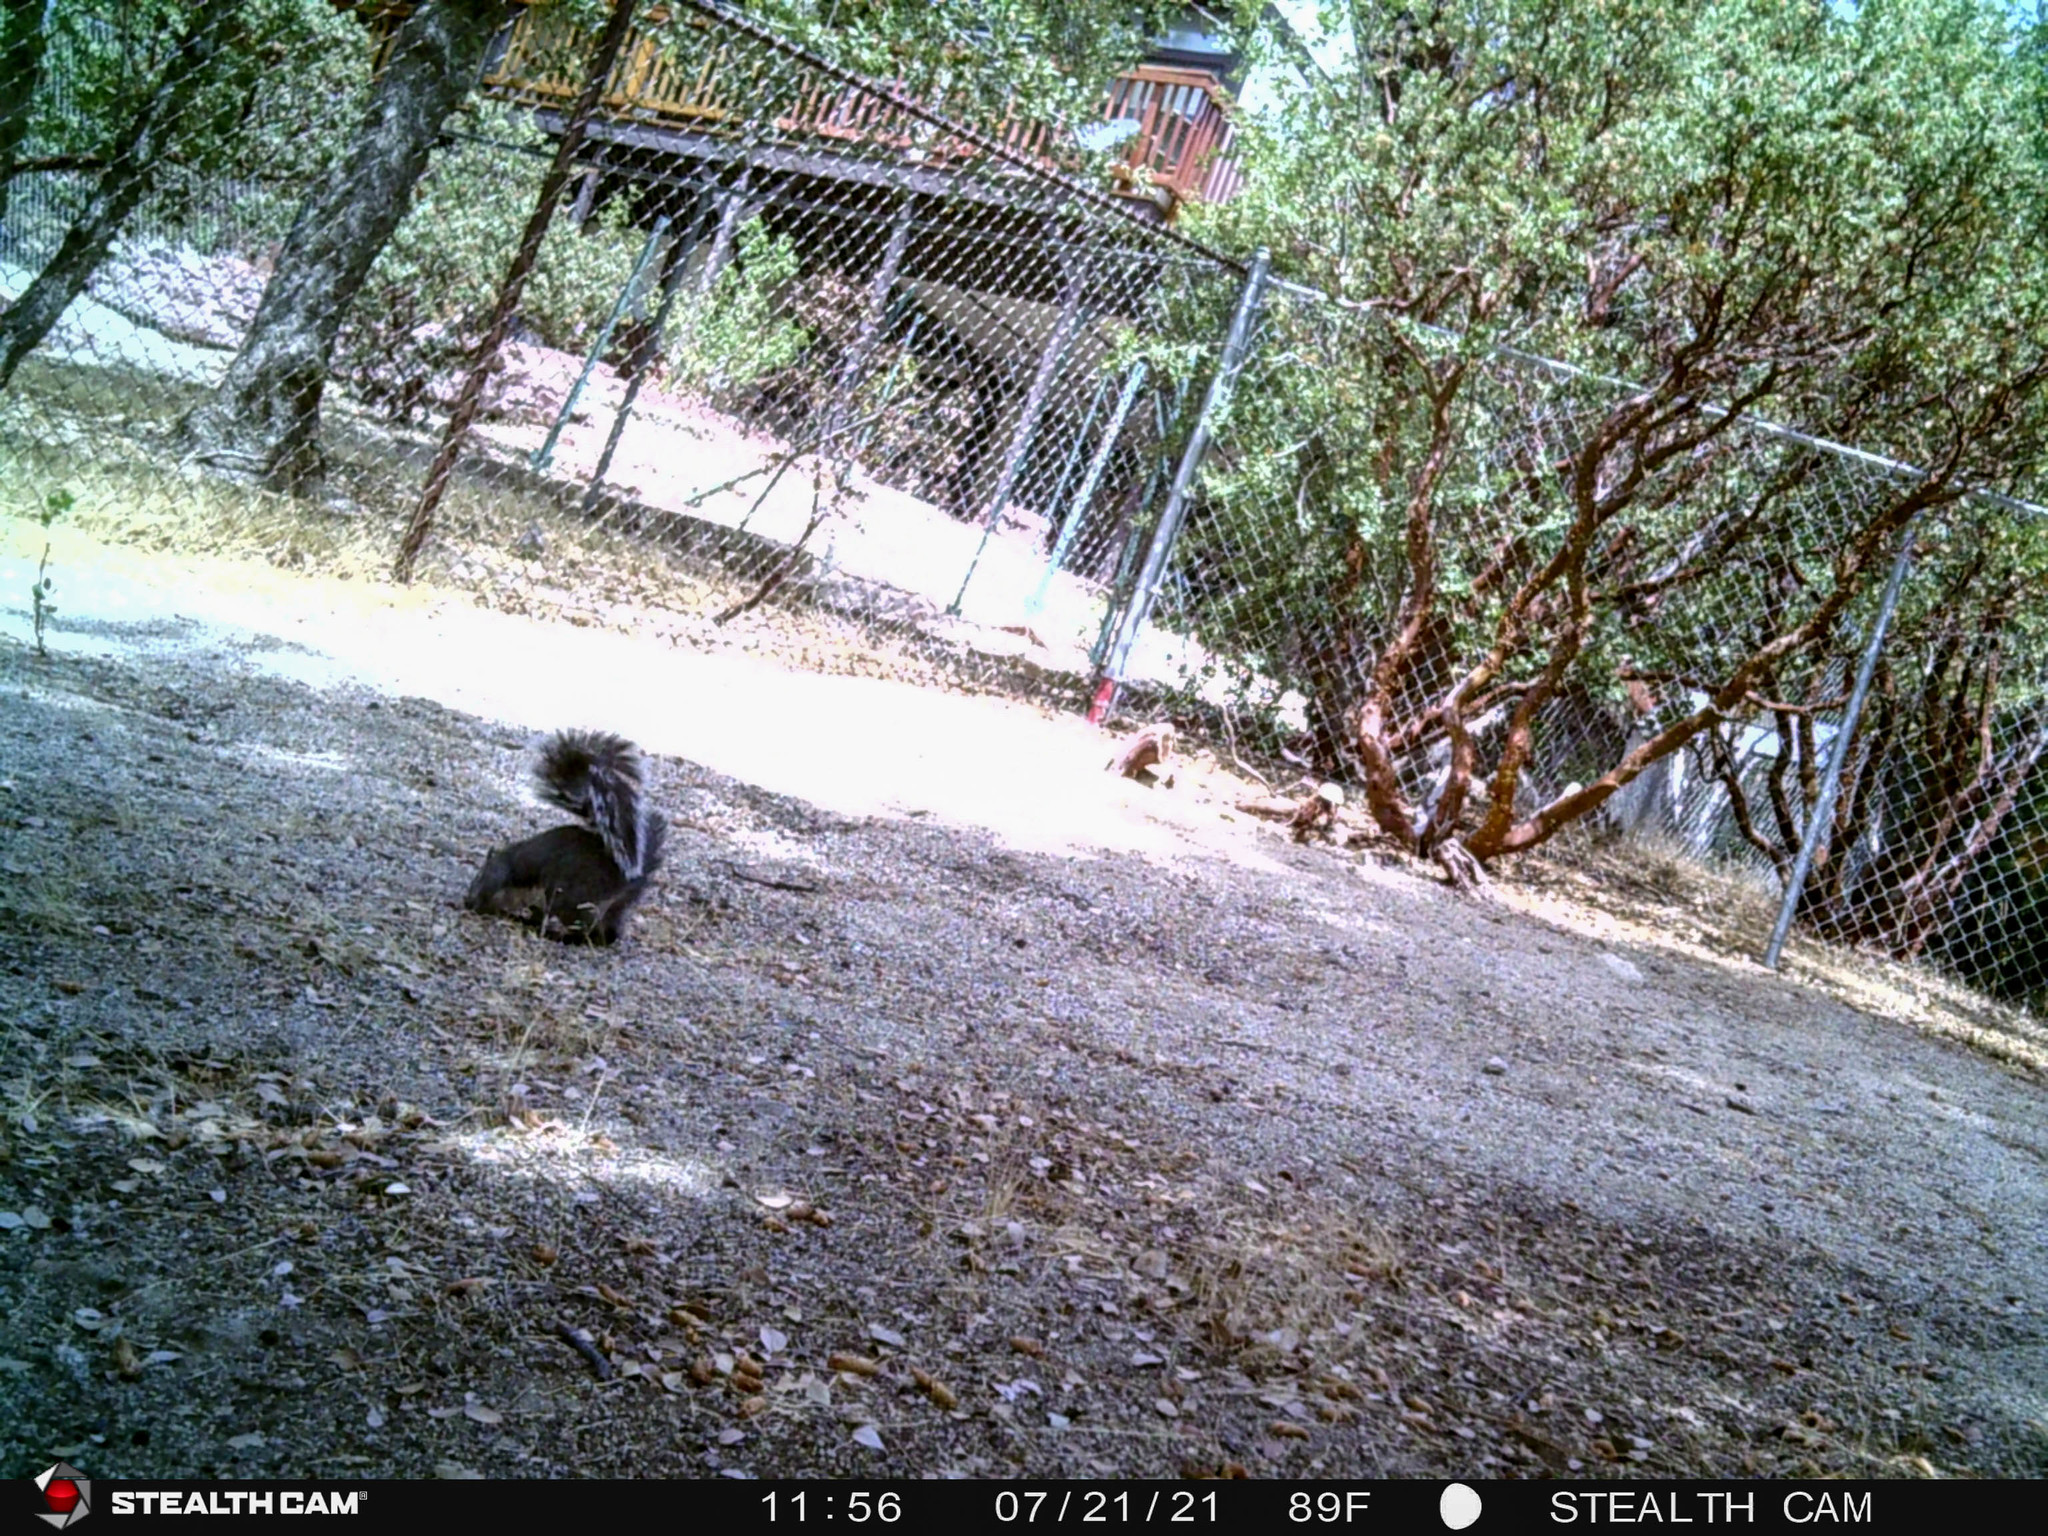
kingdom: Animalia
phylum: Chordata
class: Mammalia
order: Rodentia
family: Sciuridae
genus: Sciurus
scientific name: Sciurus griseus
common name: Western gray squirrel
